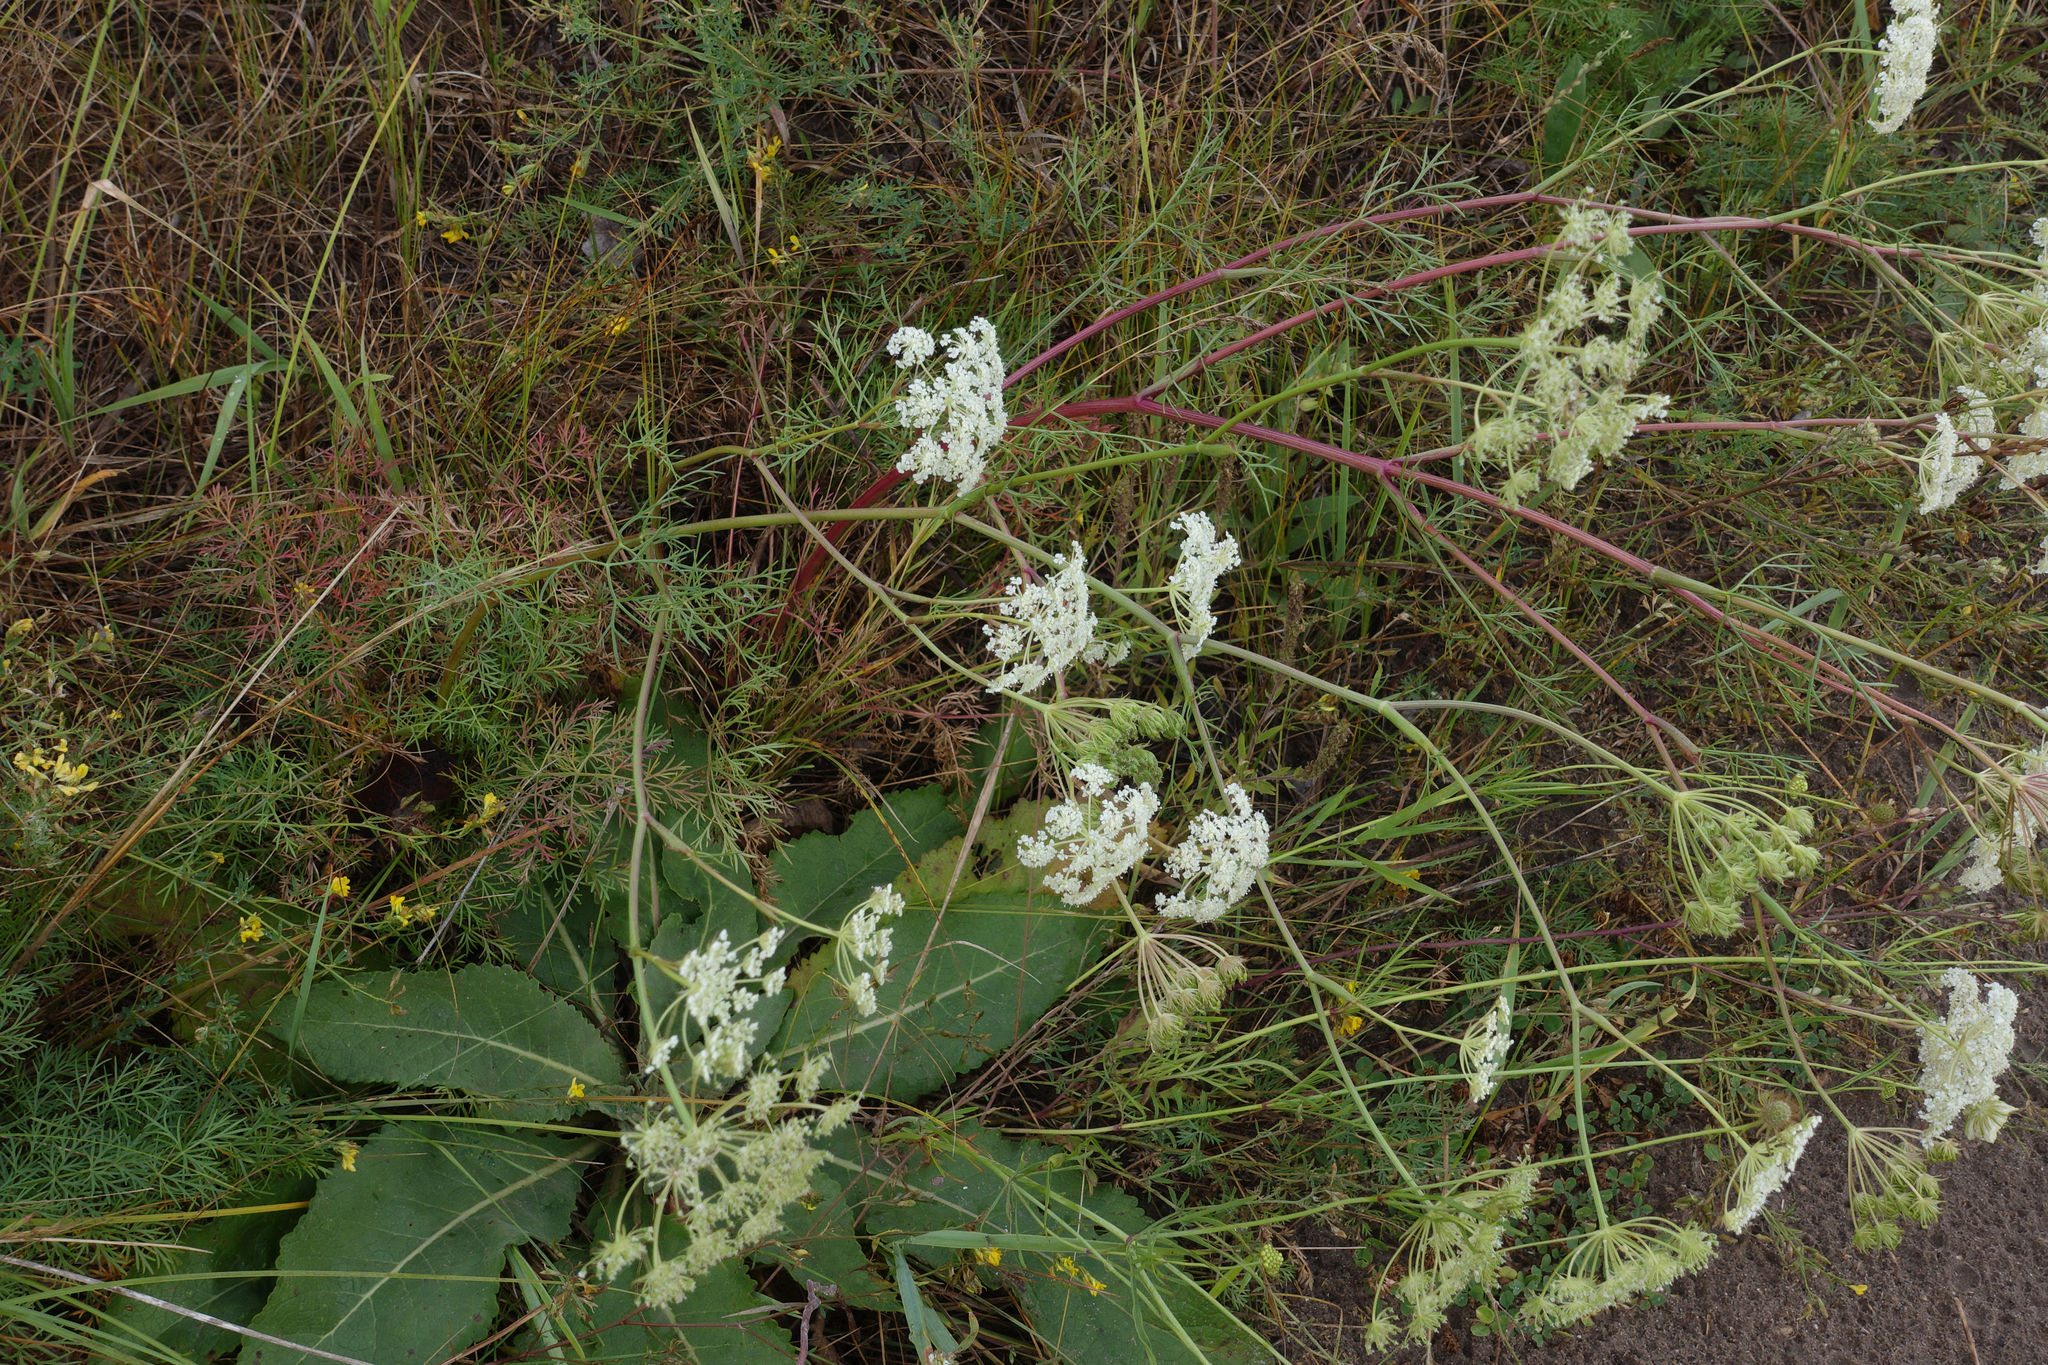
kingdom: Plantae
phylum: Tracheophyta
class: Magnoliopsida
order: Apiales
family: Apiaceae
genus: Kitagawia
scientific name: Kitagawia baicalensis
